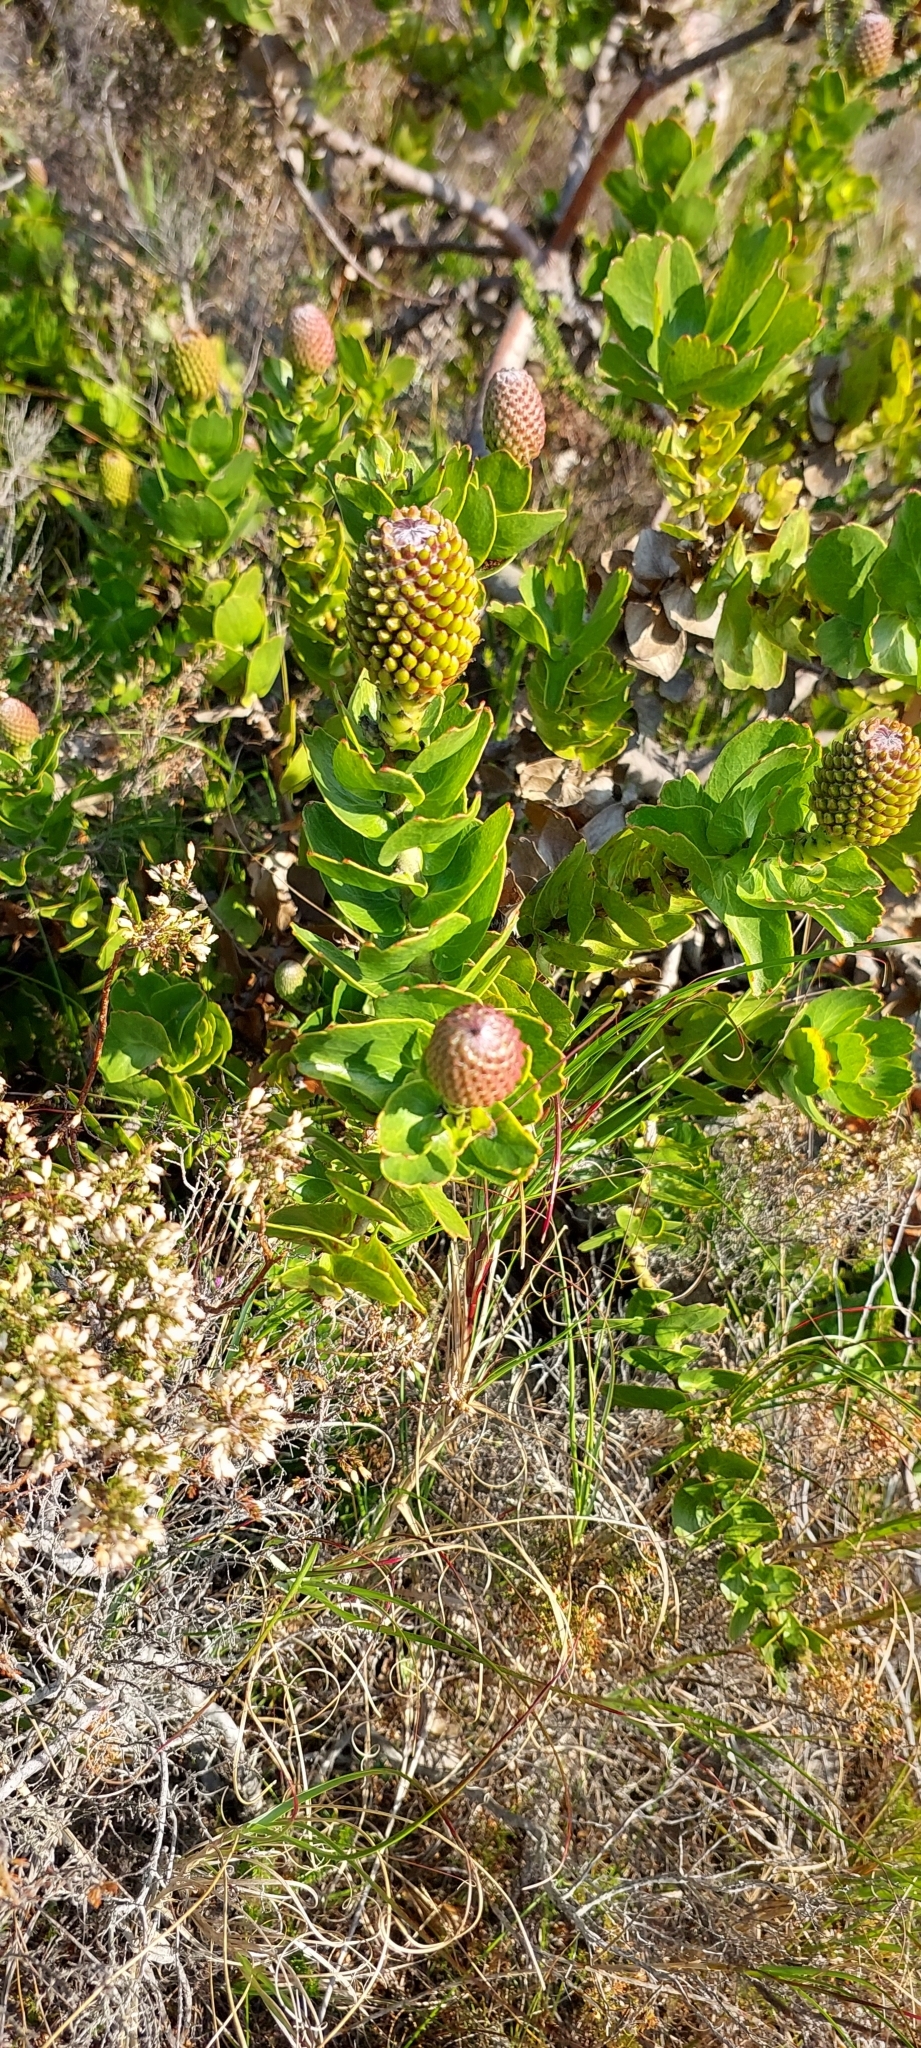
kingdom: Plantae
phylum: Tracheophyta
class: Magnoliopsida
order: Proteales
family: Proteaceae
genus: Leucospermum
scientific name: Leucospermum patersonii
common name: False tree pincushion
